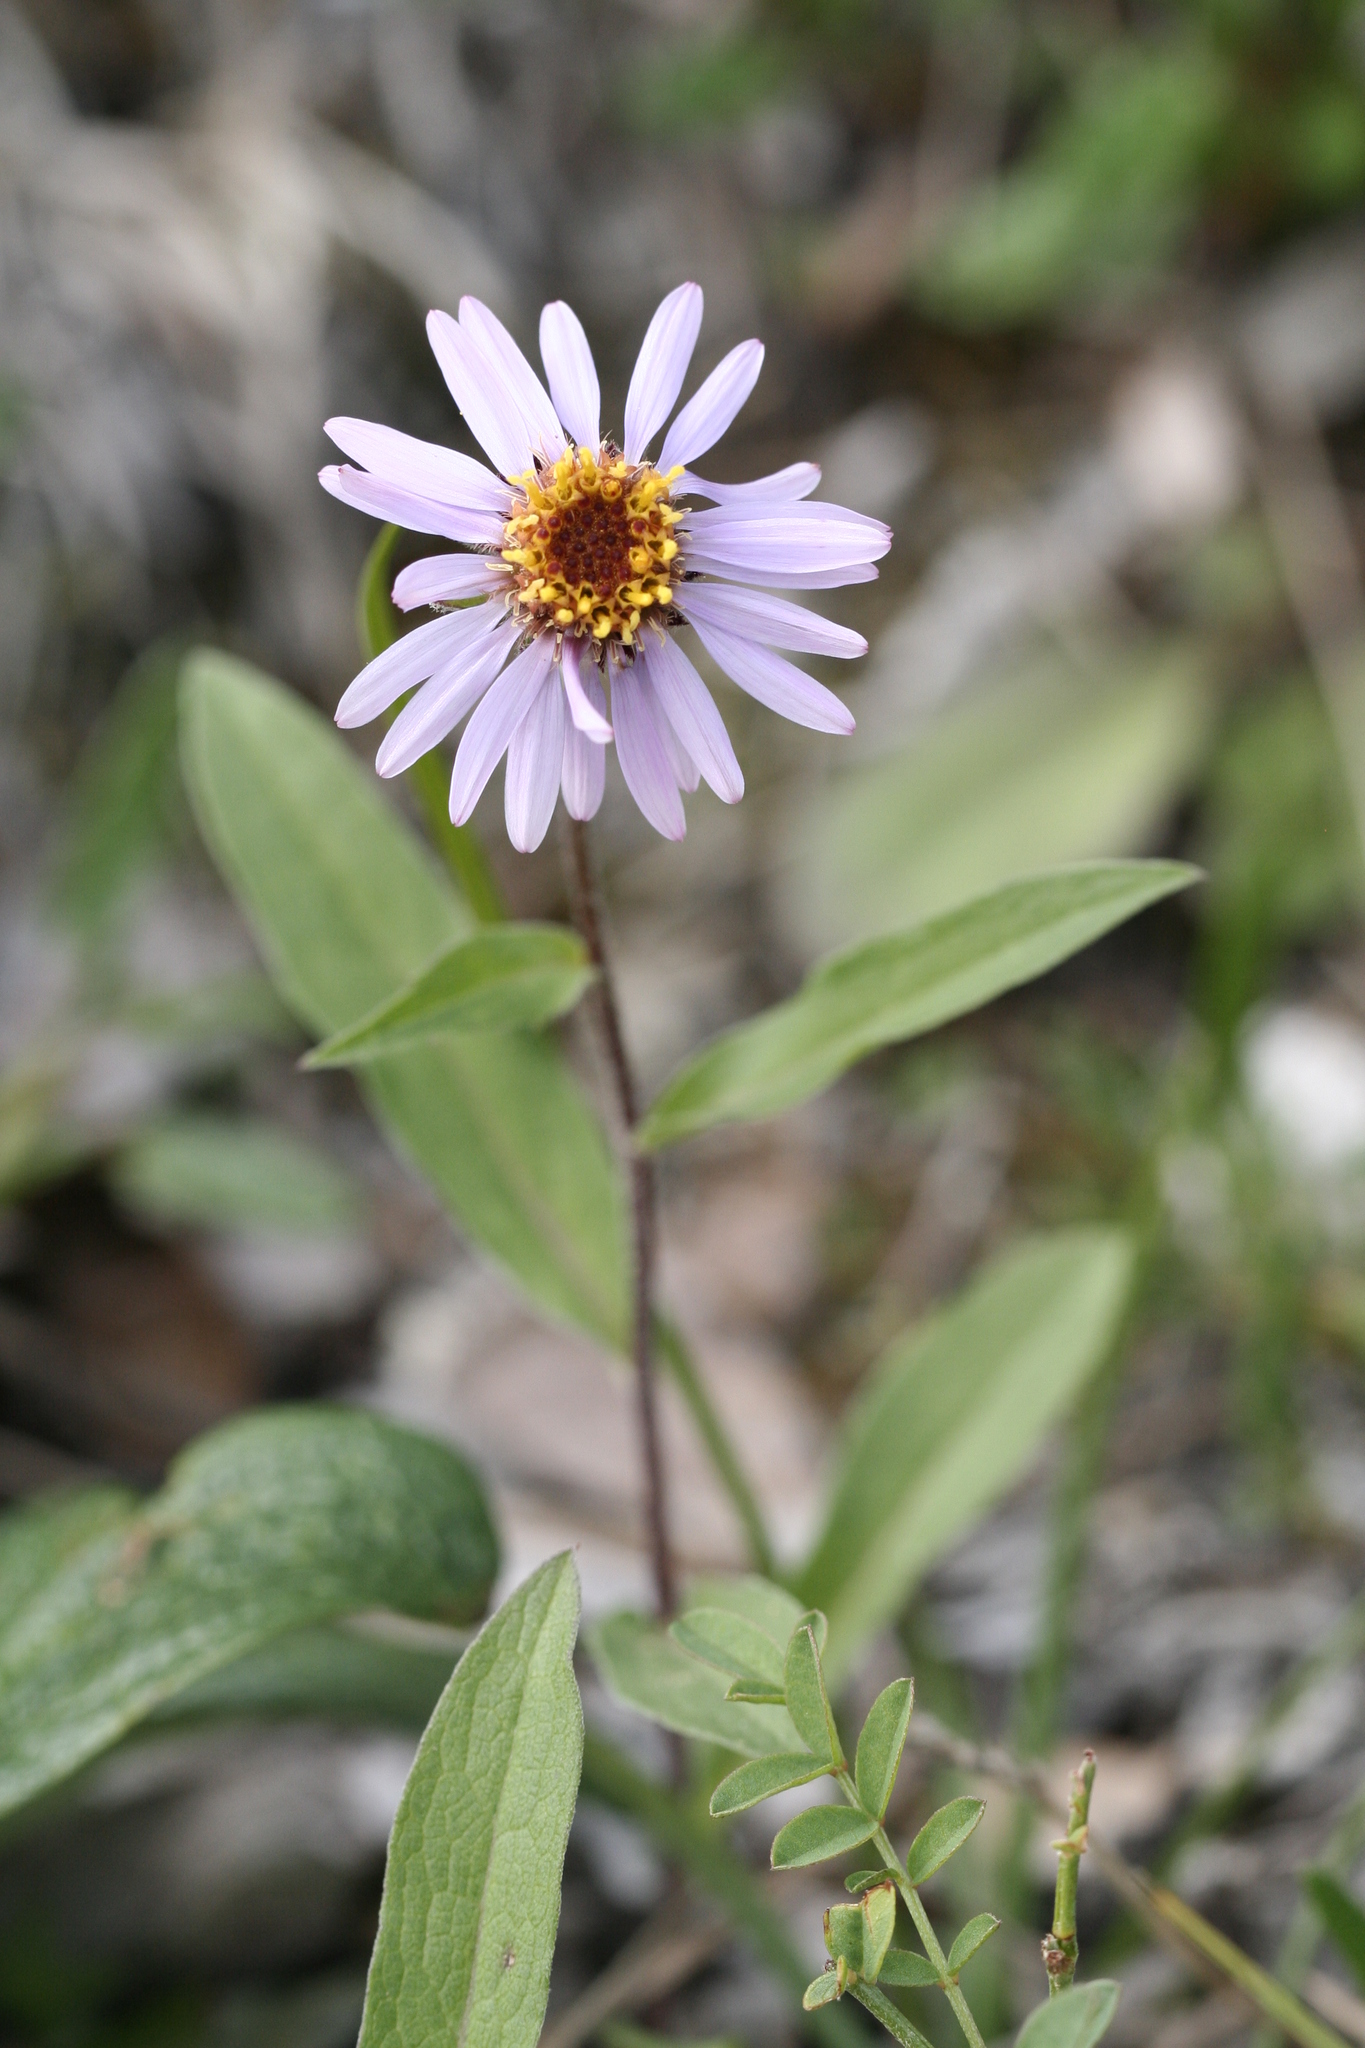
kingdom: Plantae
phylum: Tracheophyta
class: Magnoliopsida
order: Asterales
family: Asteraceae
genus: Eurybia
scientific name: Eurybia sibirica
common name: Arctic aster
